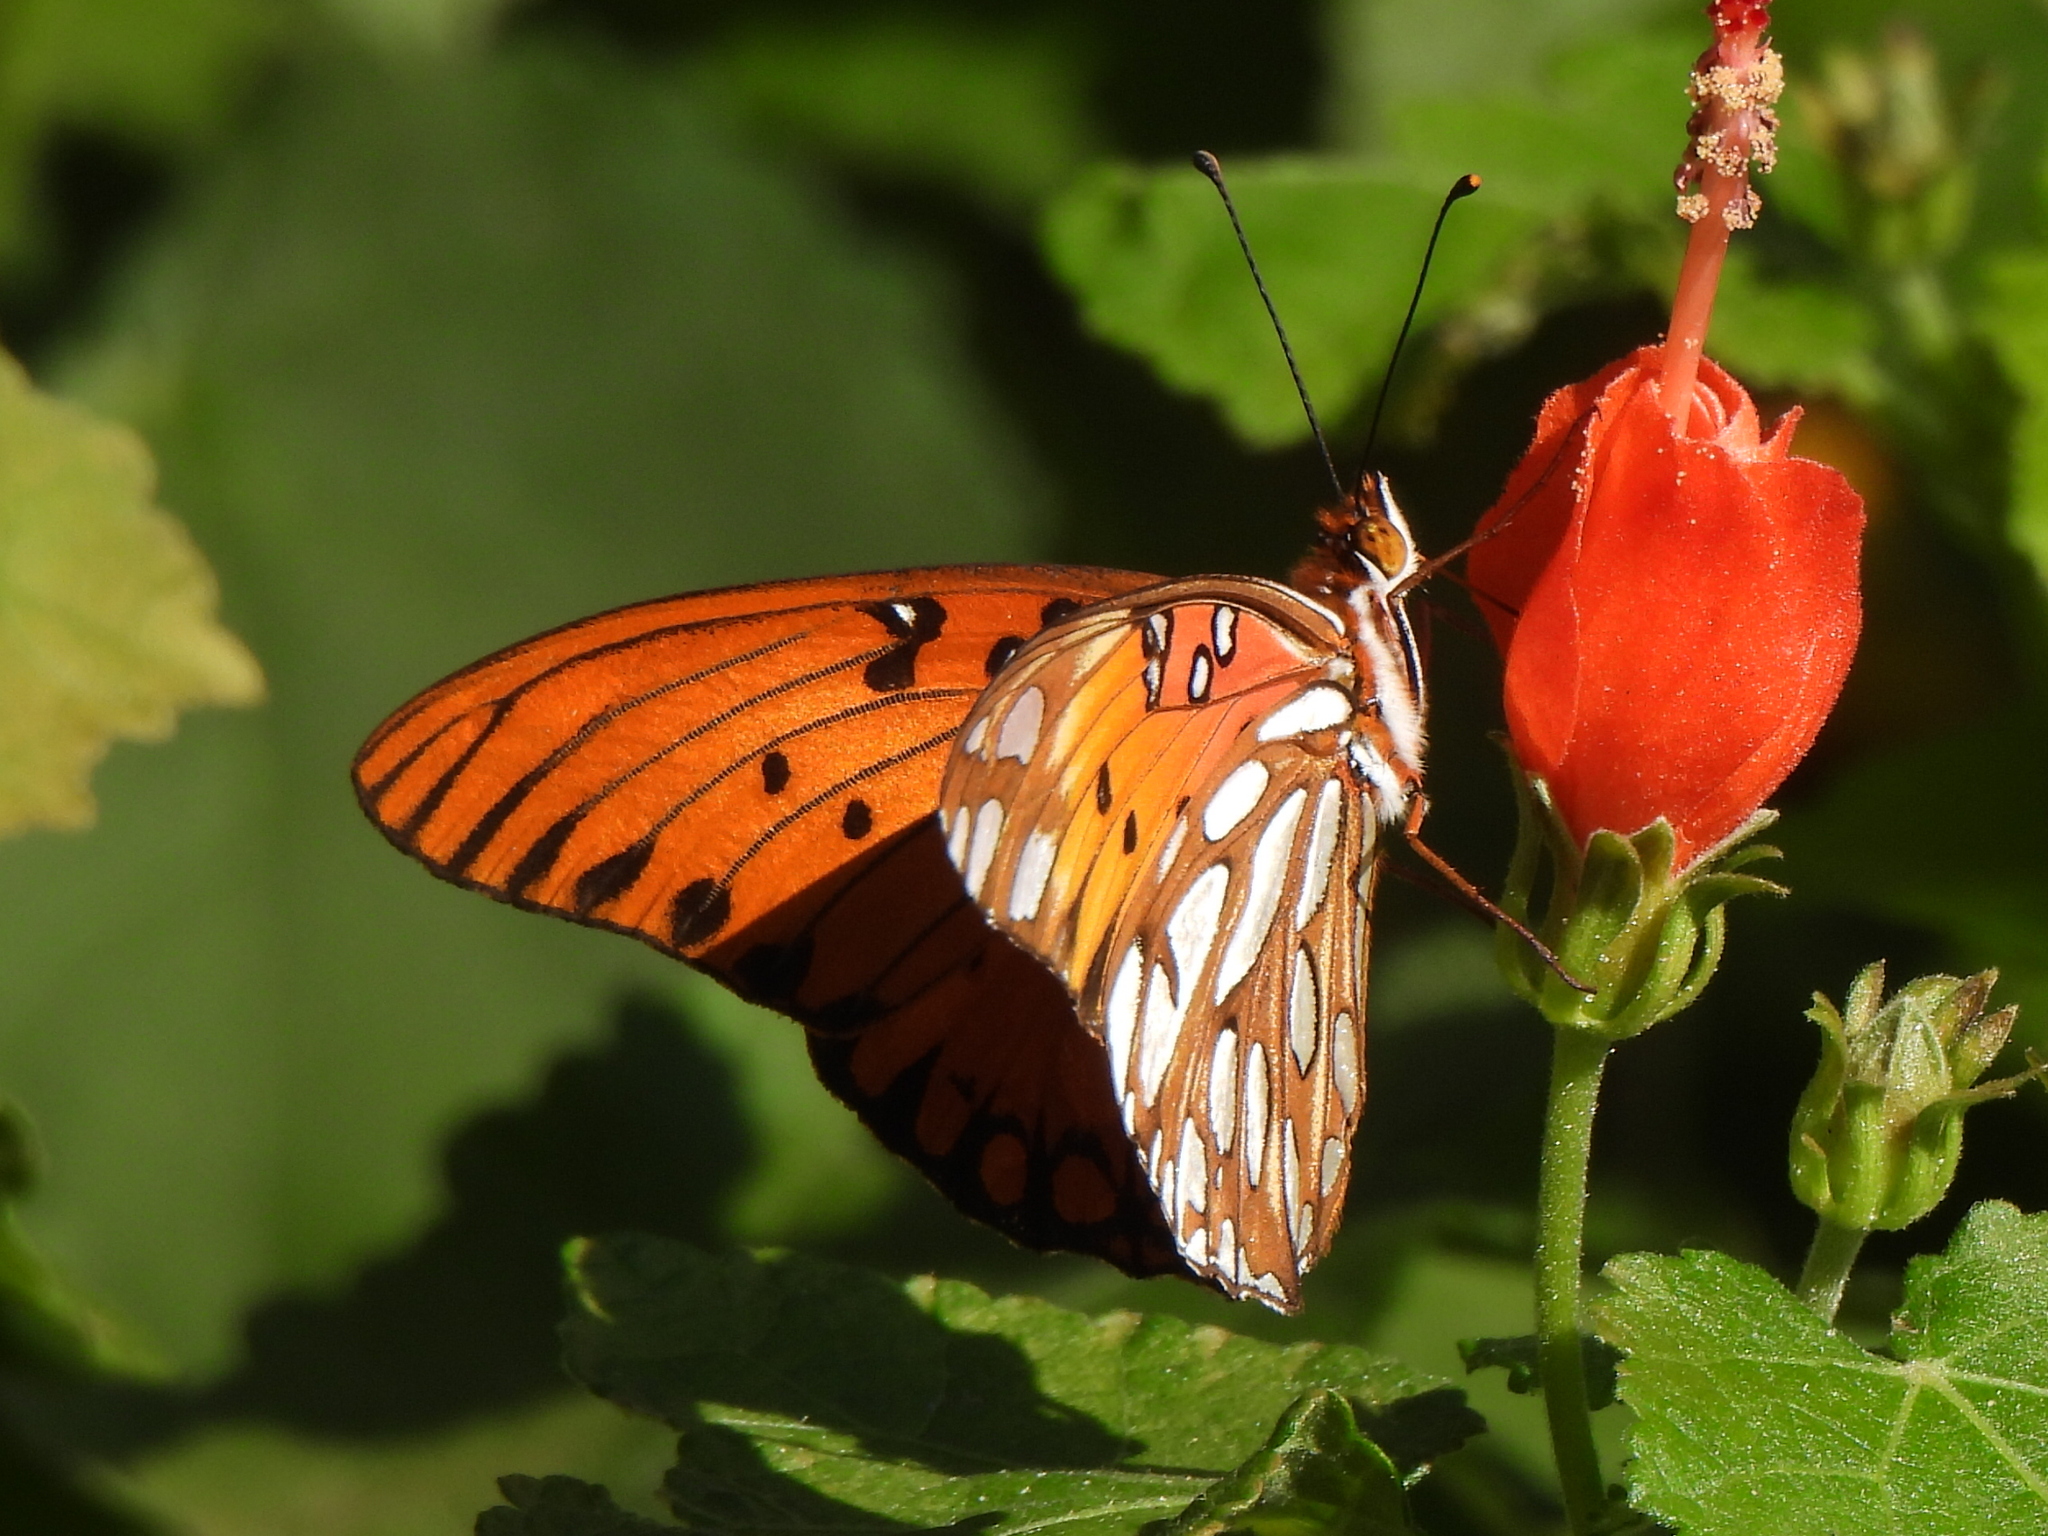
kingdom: Animalia
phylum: Arthropoda
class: Insecta
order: Lepidoptera
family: Nymphalidae
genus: Dione
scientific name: Dione vanillae
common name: Gulf fritillary
